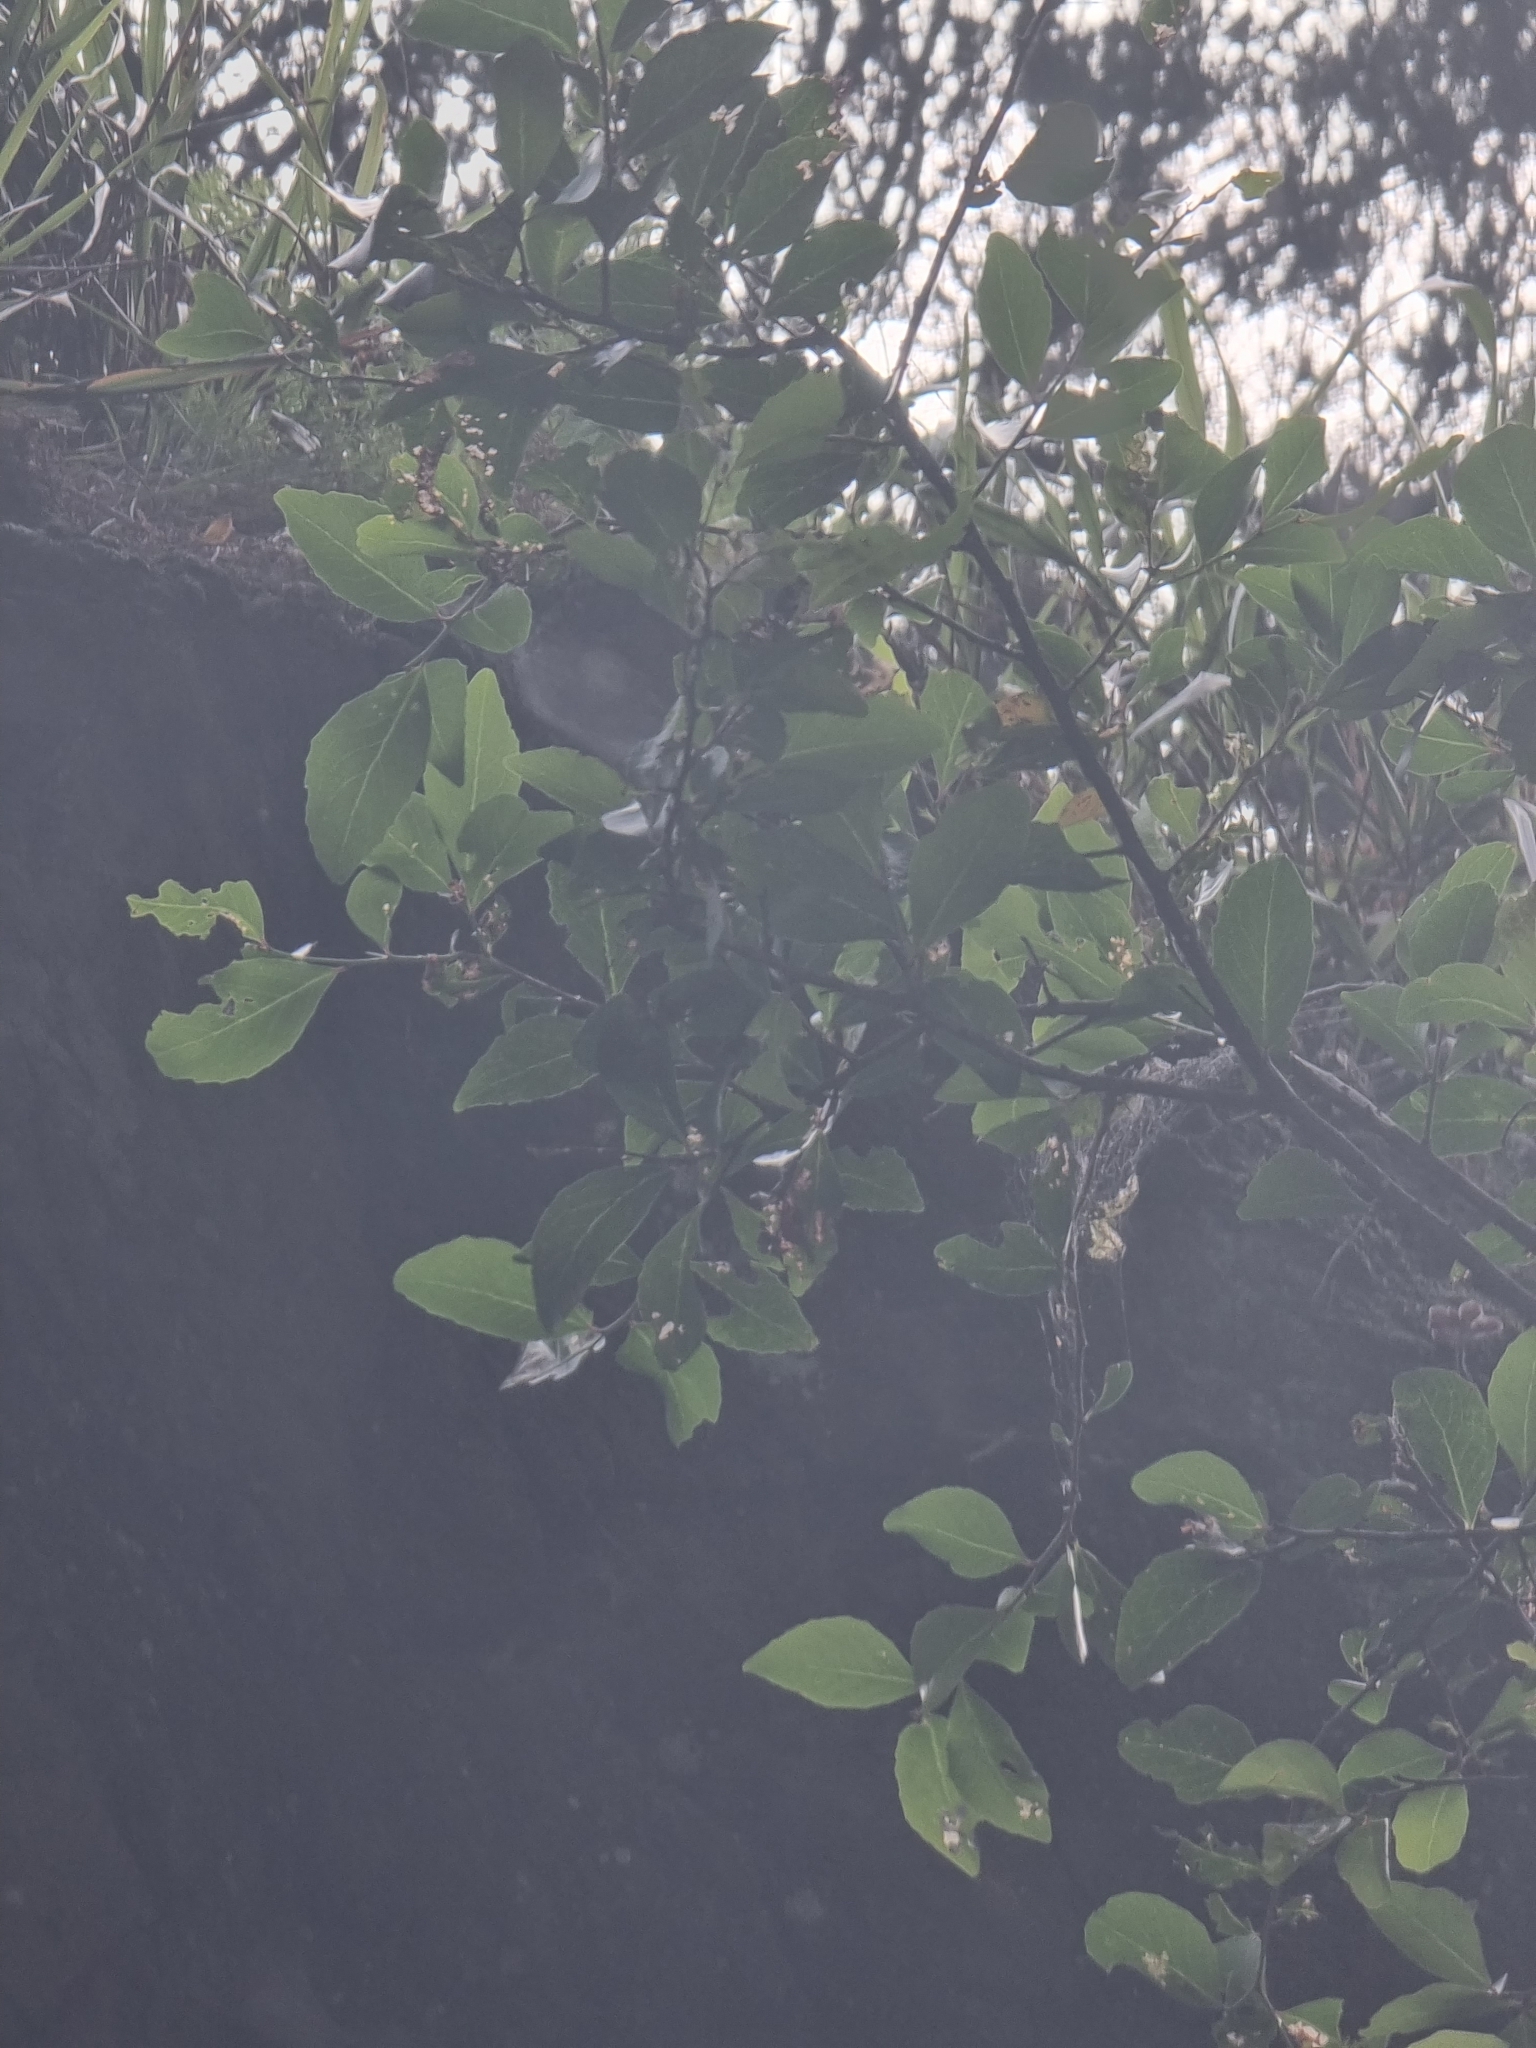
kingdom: Plantae
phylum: Tracheophyta
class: Magnoliopsida
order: Celastrales
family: Celastraceae
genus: Gymnosporia
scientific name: Gymnosporia dryandri
